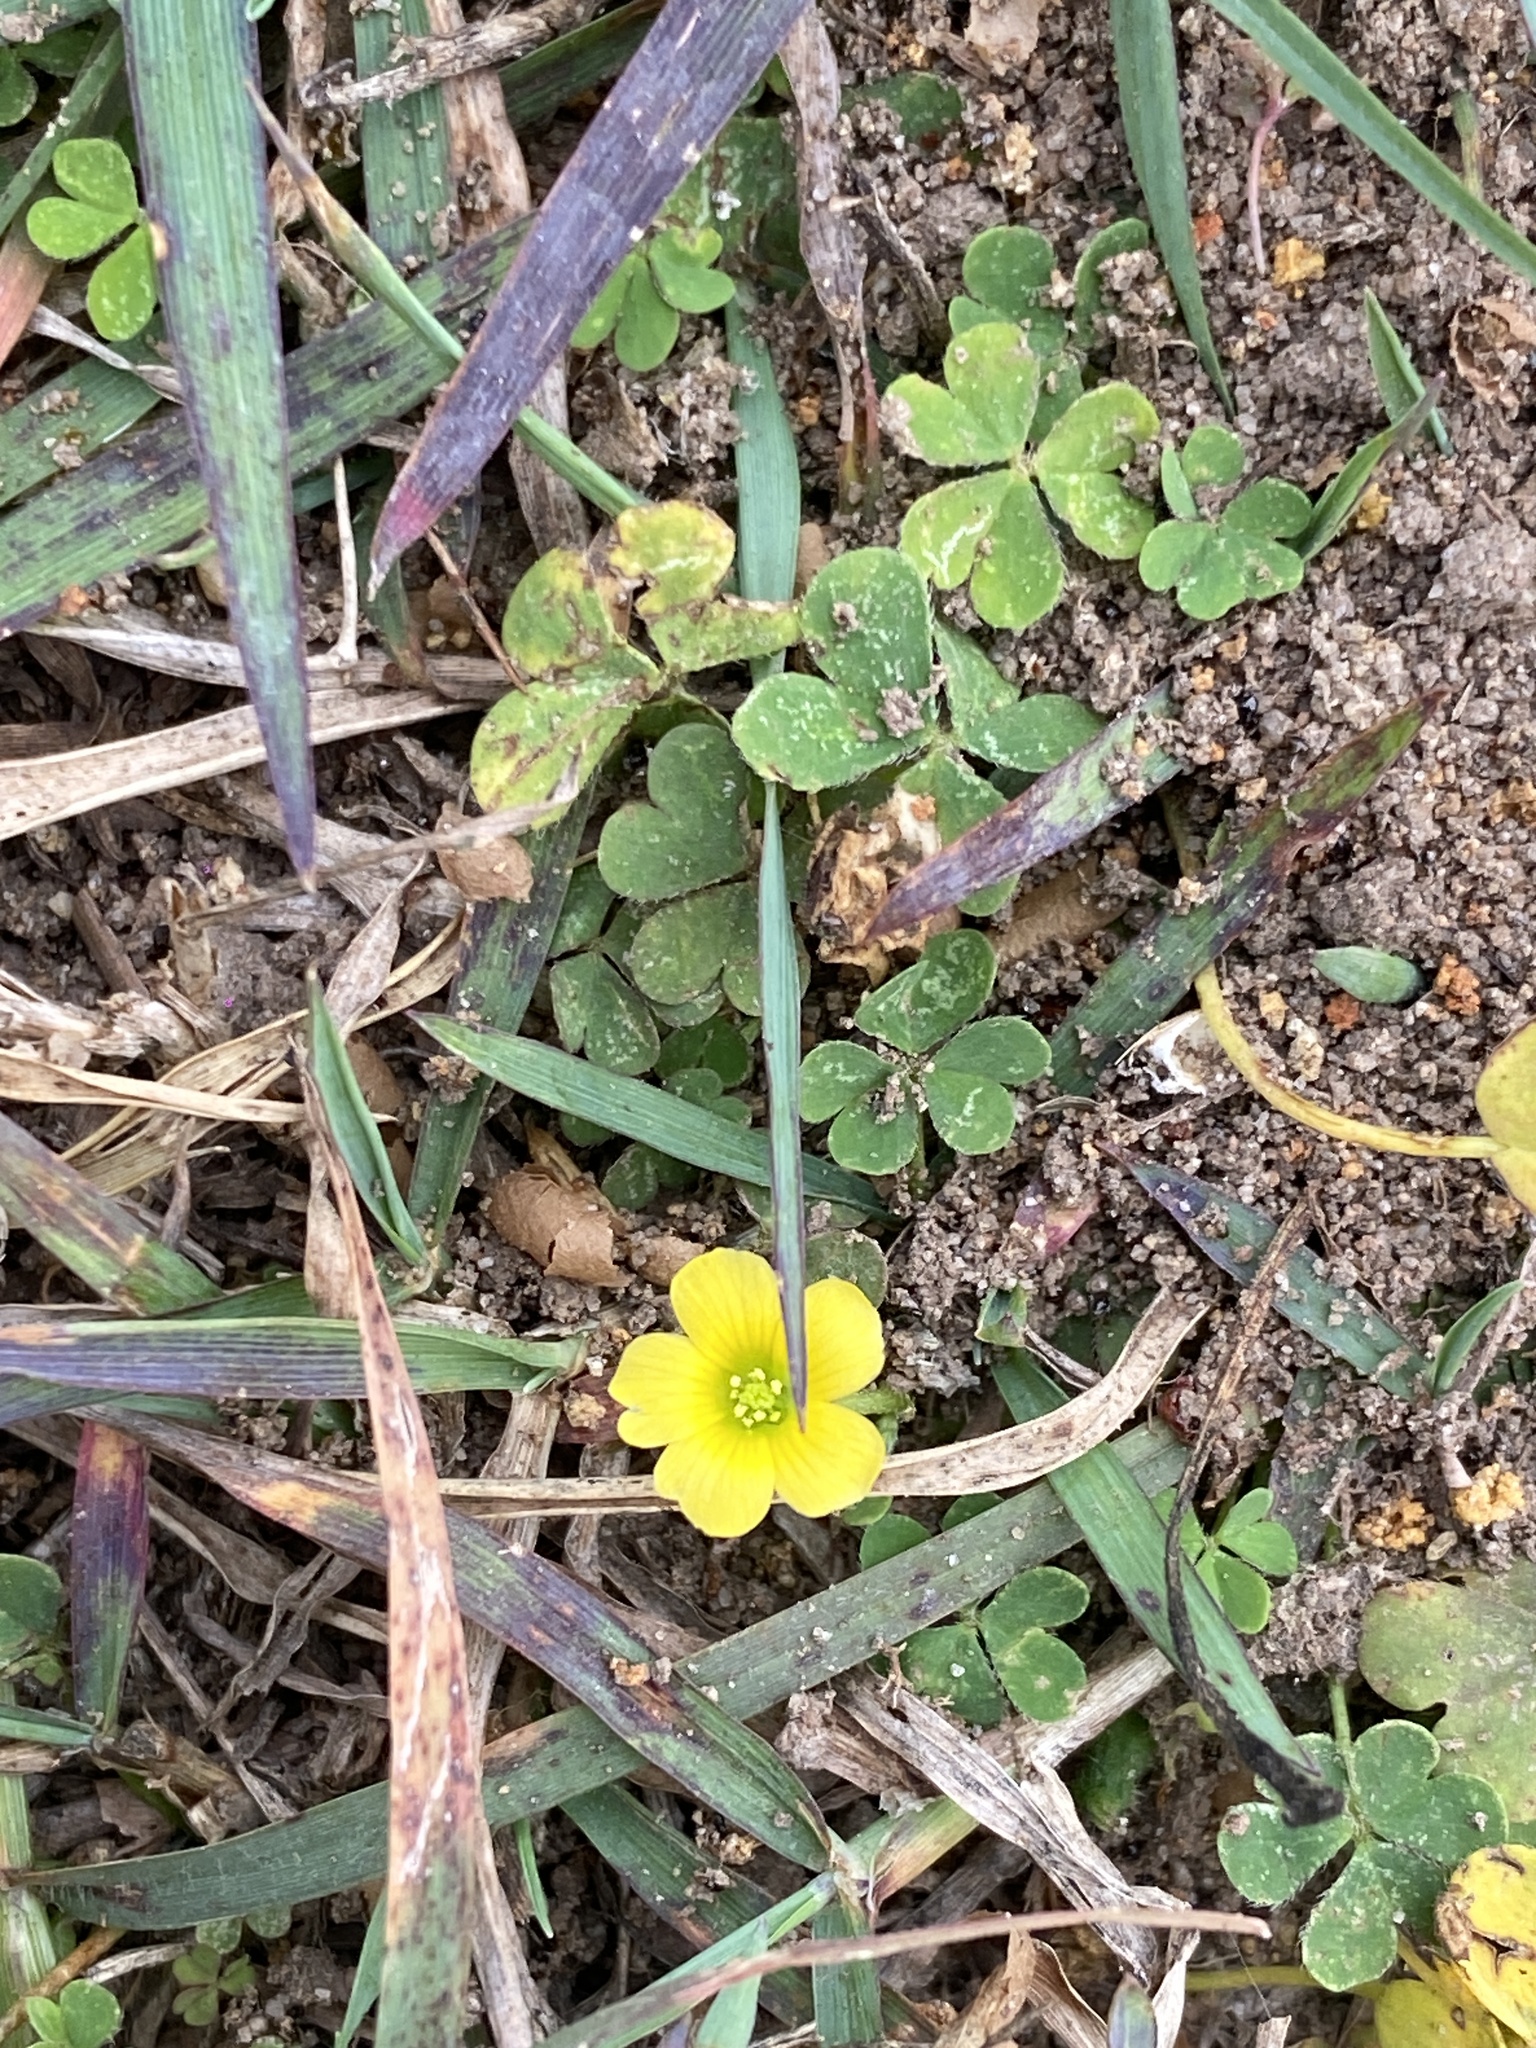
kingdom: Plantae
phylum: Tracheophyta
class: Magnoliopsida
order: Oxalidales
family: Oxalidaceae
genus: Oxalis
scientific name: Oxalis corniculata
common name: Procumbent yellow-sorrel
